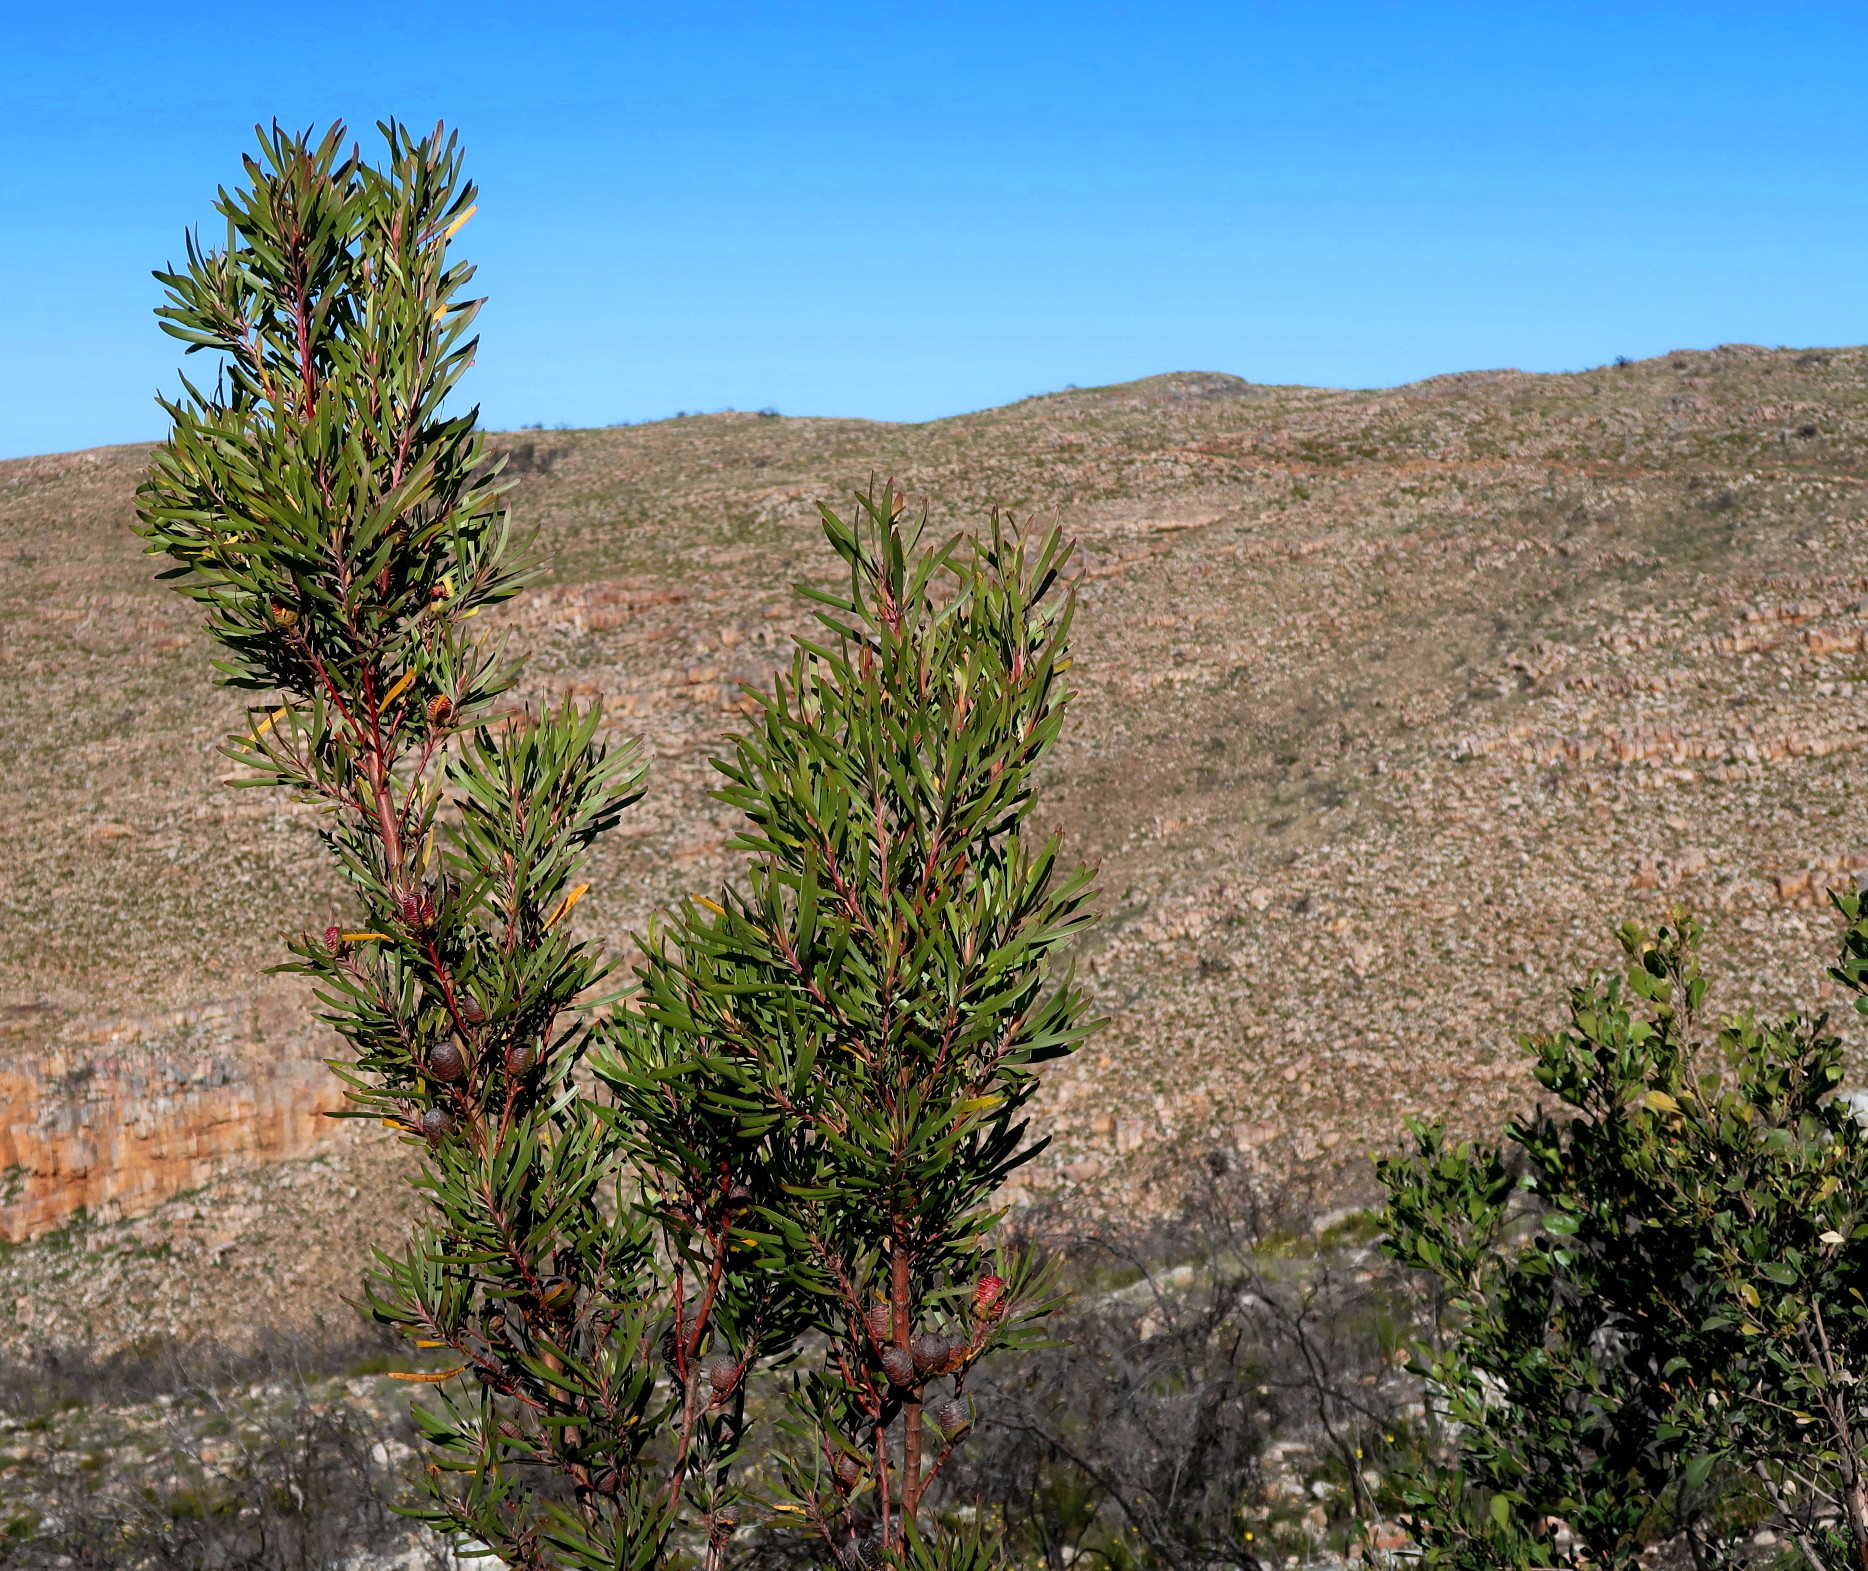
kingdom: Plantae
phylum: Tracheophyta
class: Magnoliopsida
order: Proteales
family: Proteaceae
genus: Leucadendron
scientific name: Leucadendron eucalyptifolium
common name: Gum-leaved conebush
